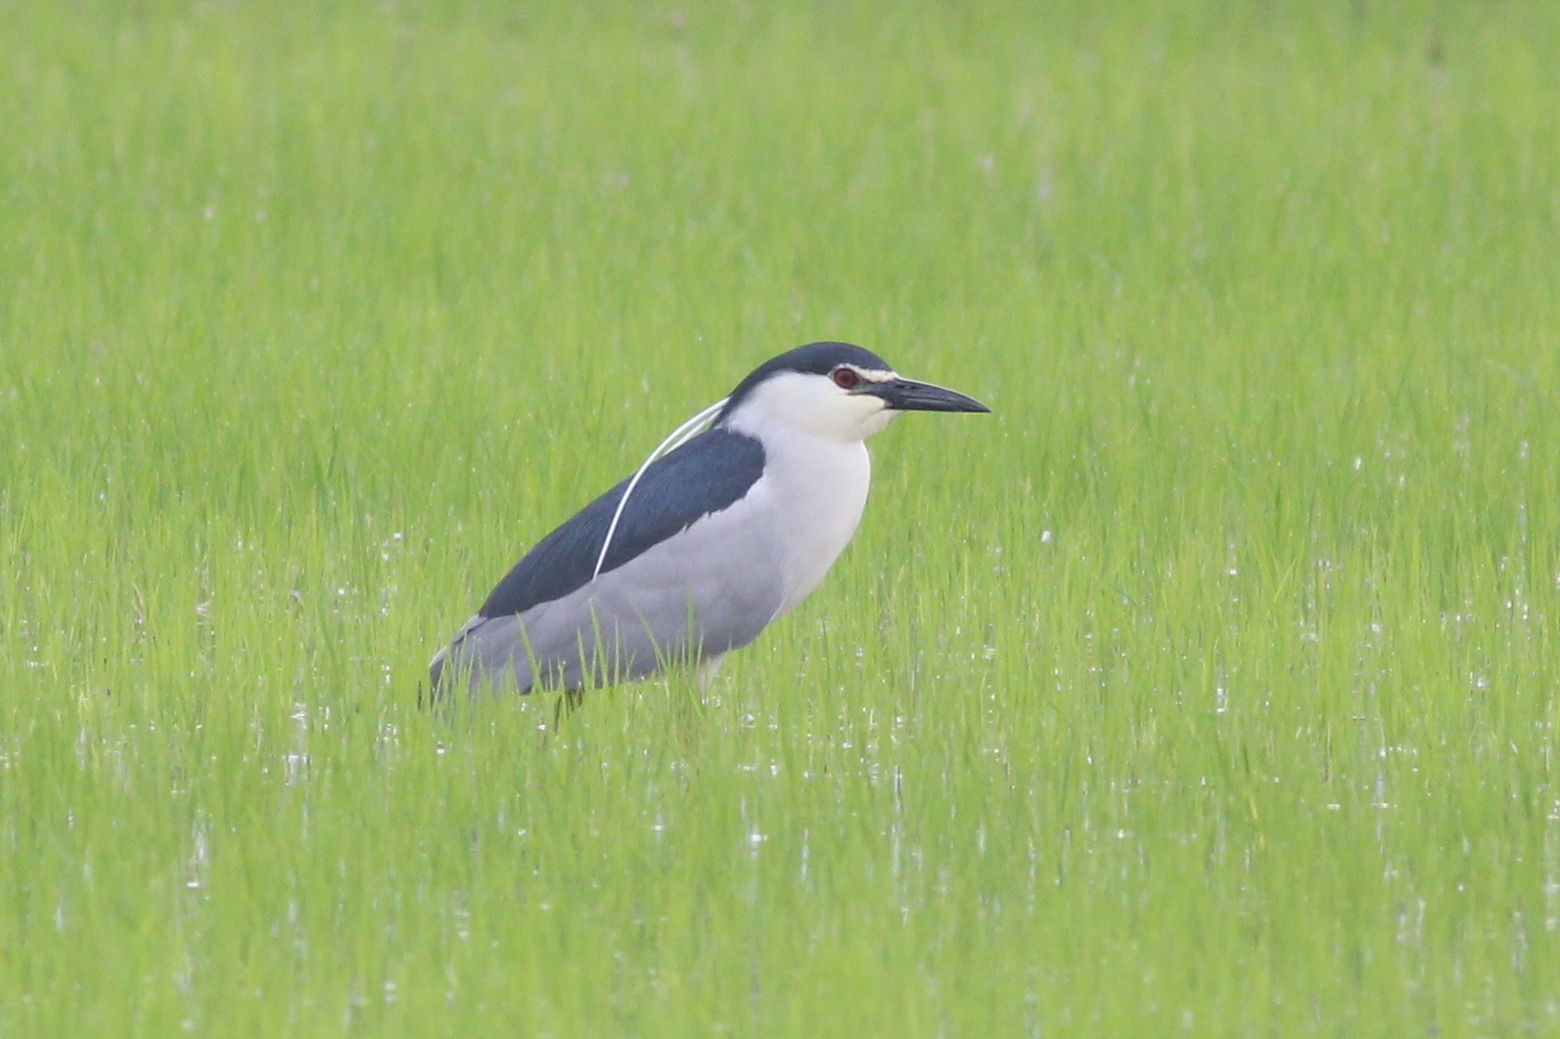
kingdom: Animalia
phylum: Chordata
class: Aves
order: Pelecaniformes
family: Ardeidae
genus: Nycticorax
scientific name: Nycticorax nycticorax
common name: Black-crowned night heron
